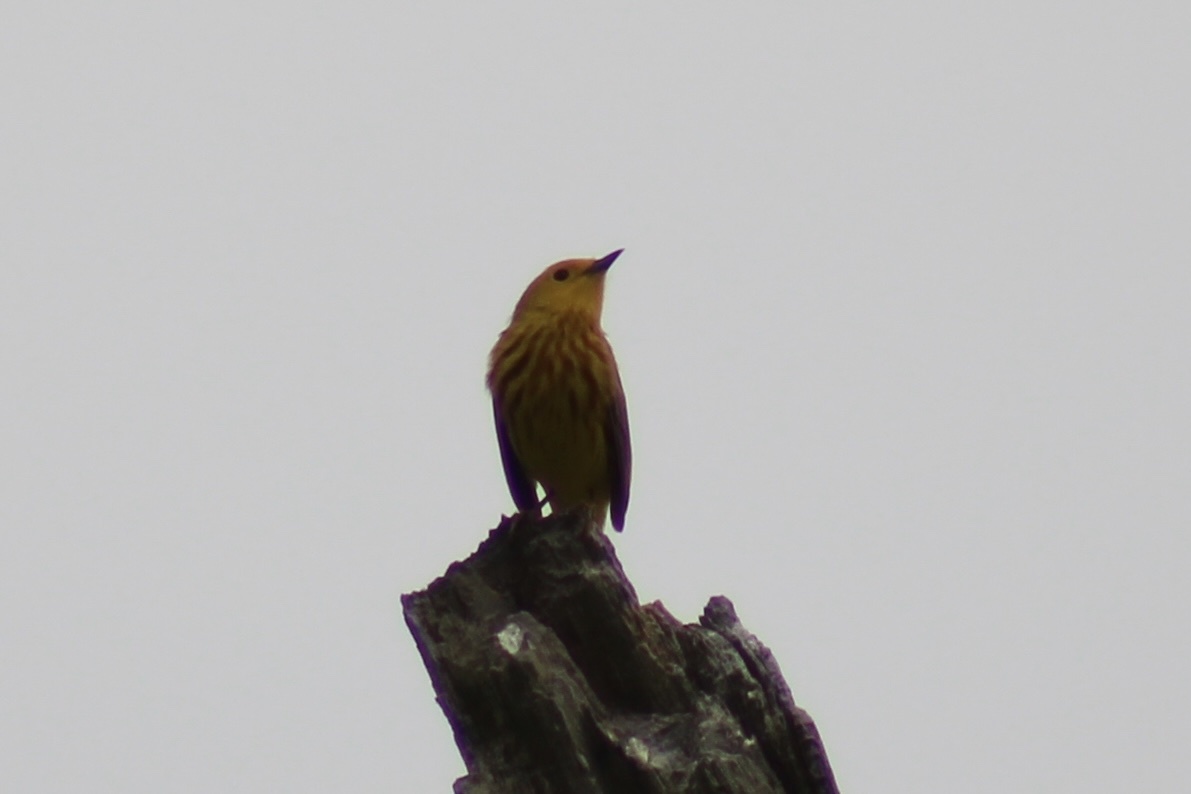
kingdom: Animalia
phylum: Chordata
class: Aves
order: Passeriformes
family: Parulidae
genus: Setophaga
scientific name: Setophaga petechia
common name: Yellow warbler
